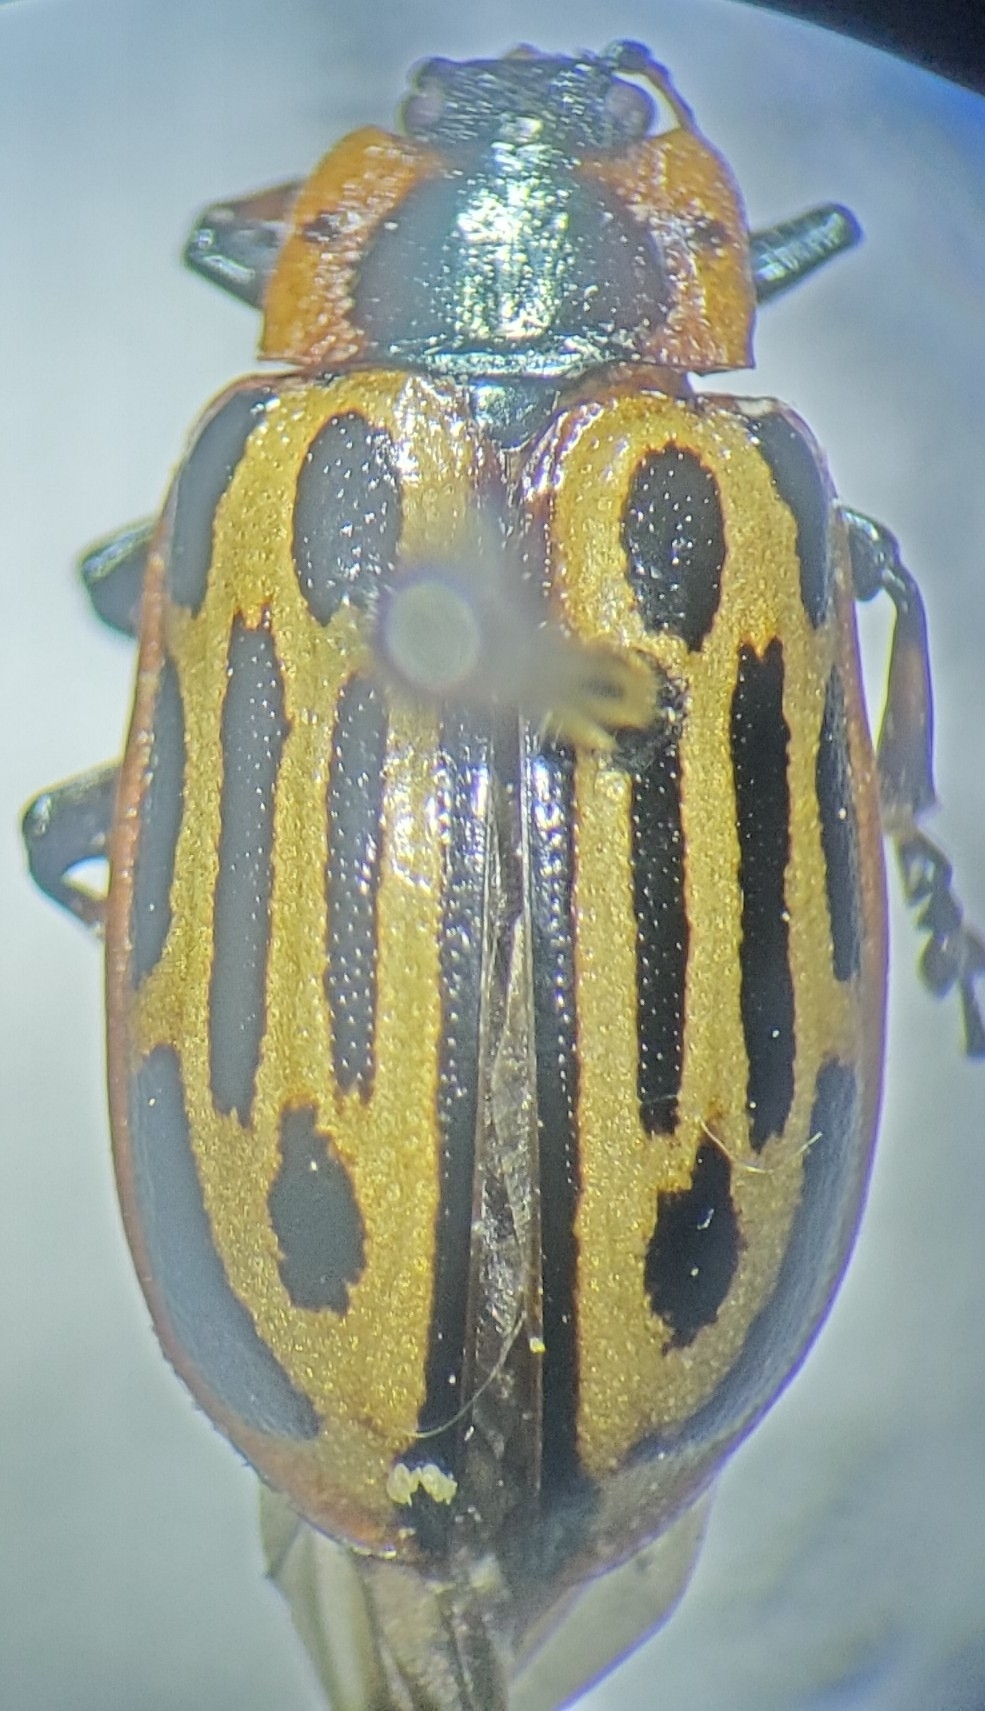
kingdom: Animalia
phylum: Arthropoda
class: Insecta
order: Coleoptera
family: Chrysomelidae
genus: Aethiopocassis
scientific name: Aethiopocassis scripta
